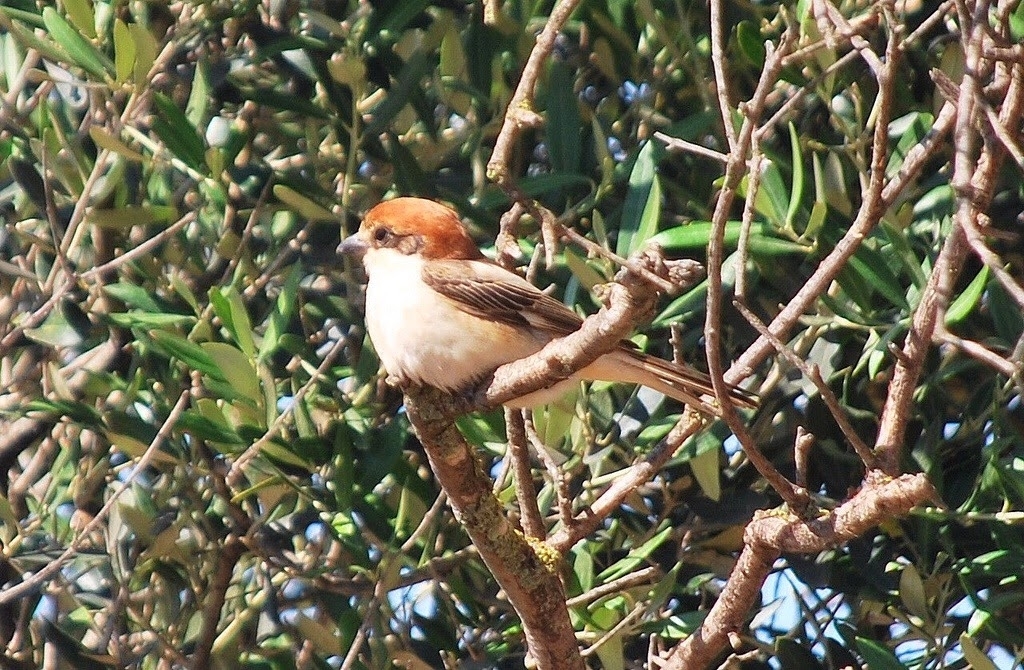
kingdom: Animalia
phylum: Chordata
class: Aves
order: Passeriformes
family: Laniidae
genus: Lanius
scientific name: Lanius senator
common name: Woodchat shrike
